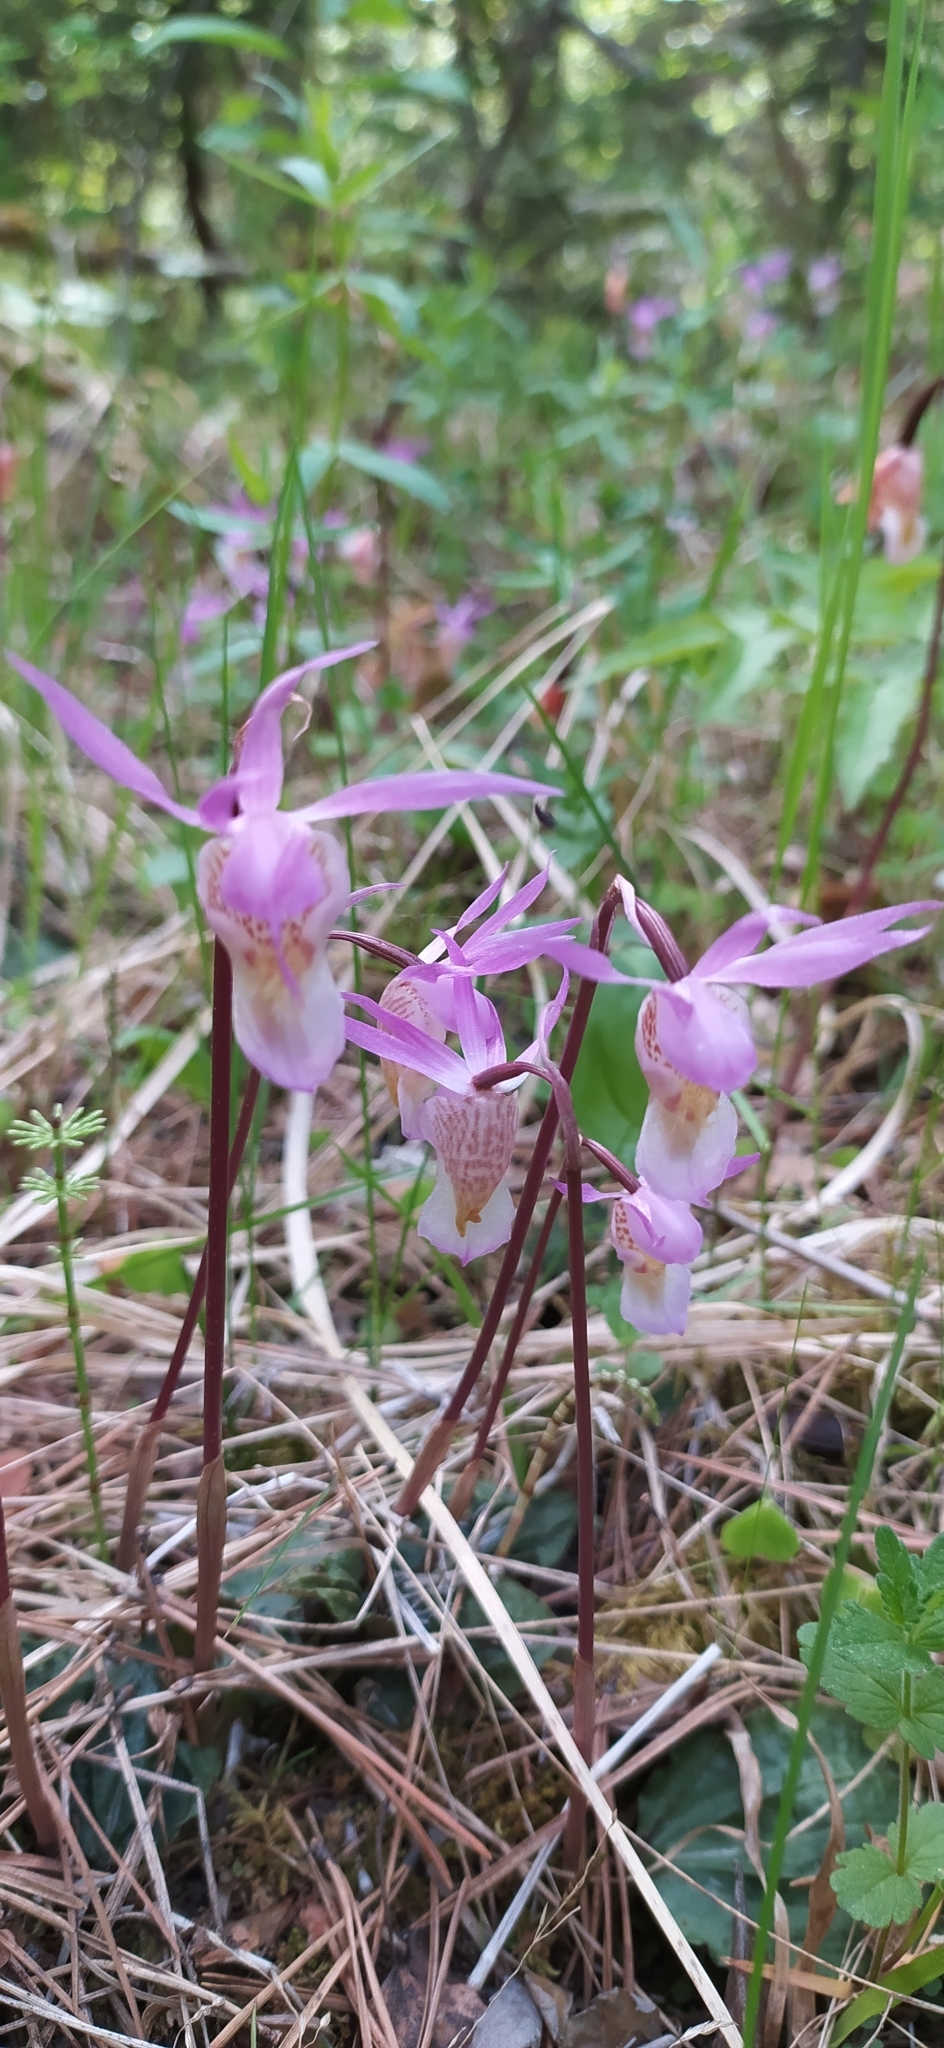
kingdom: Plantae
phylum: Tracheophyta
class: Liliopsida
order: Asparagales
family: Orchidaceae
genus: Calypso
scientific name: Calypso bulbosa
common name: Calypso
